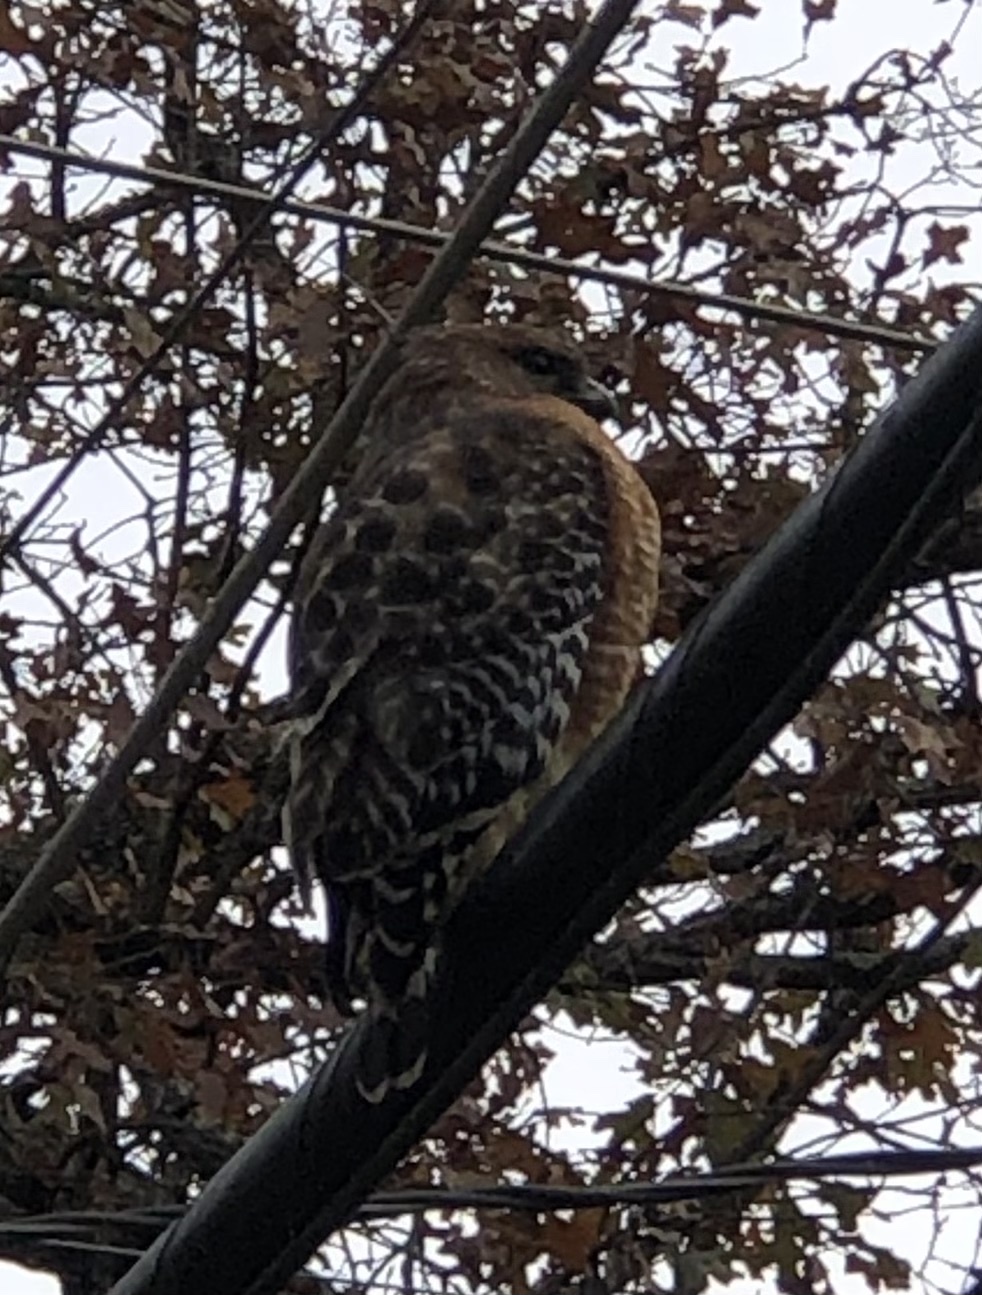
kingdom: Animalia
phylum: Chordata
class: Aves
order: Accipitriformes
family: Accipitridae
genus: Buteo
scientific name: Buteo lineatus
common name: Red-shouldered hawk
